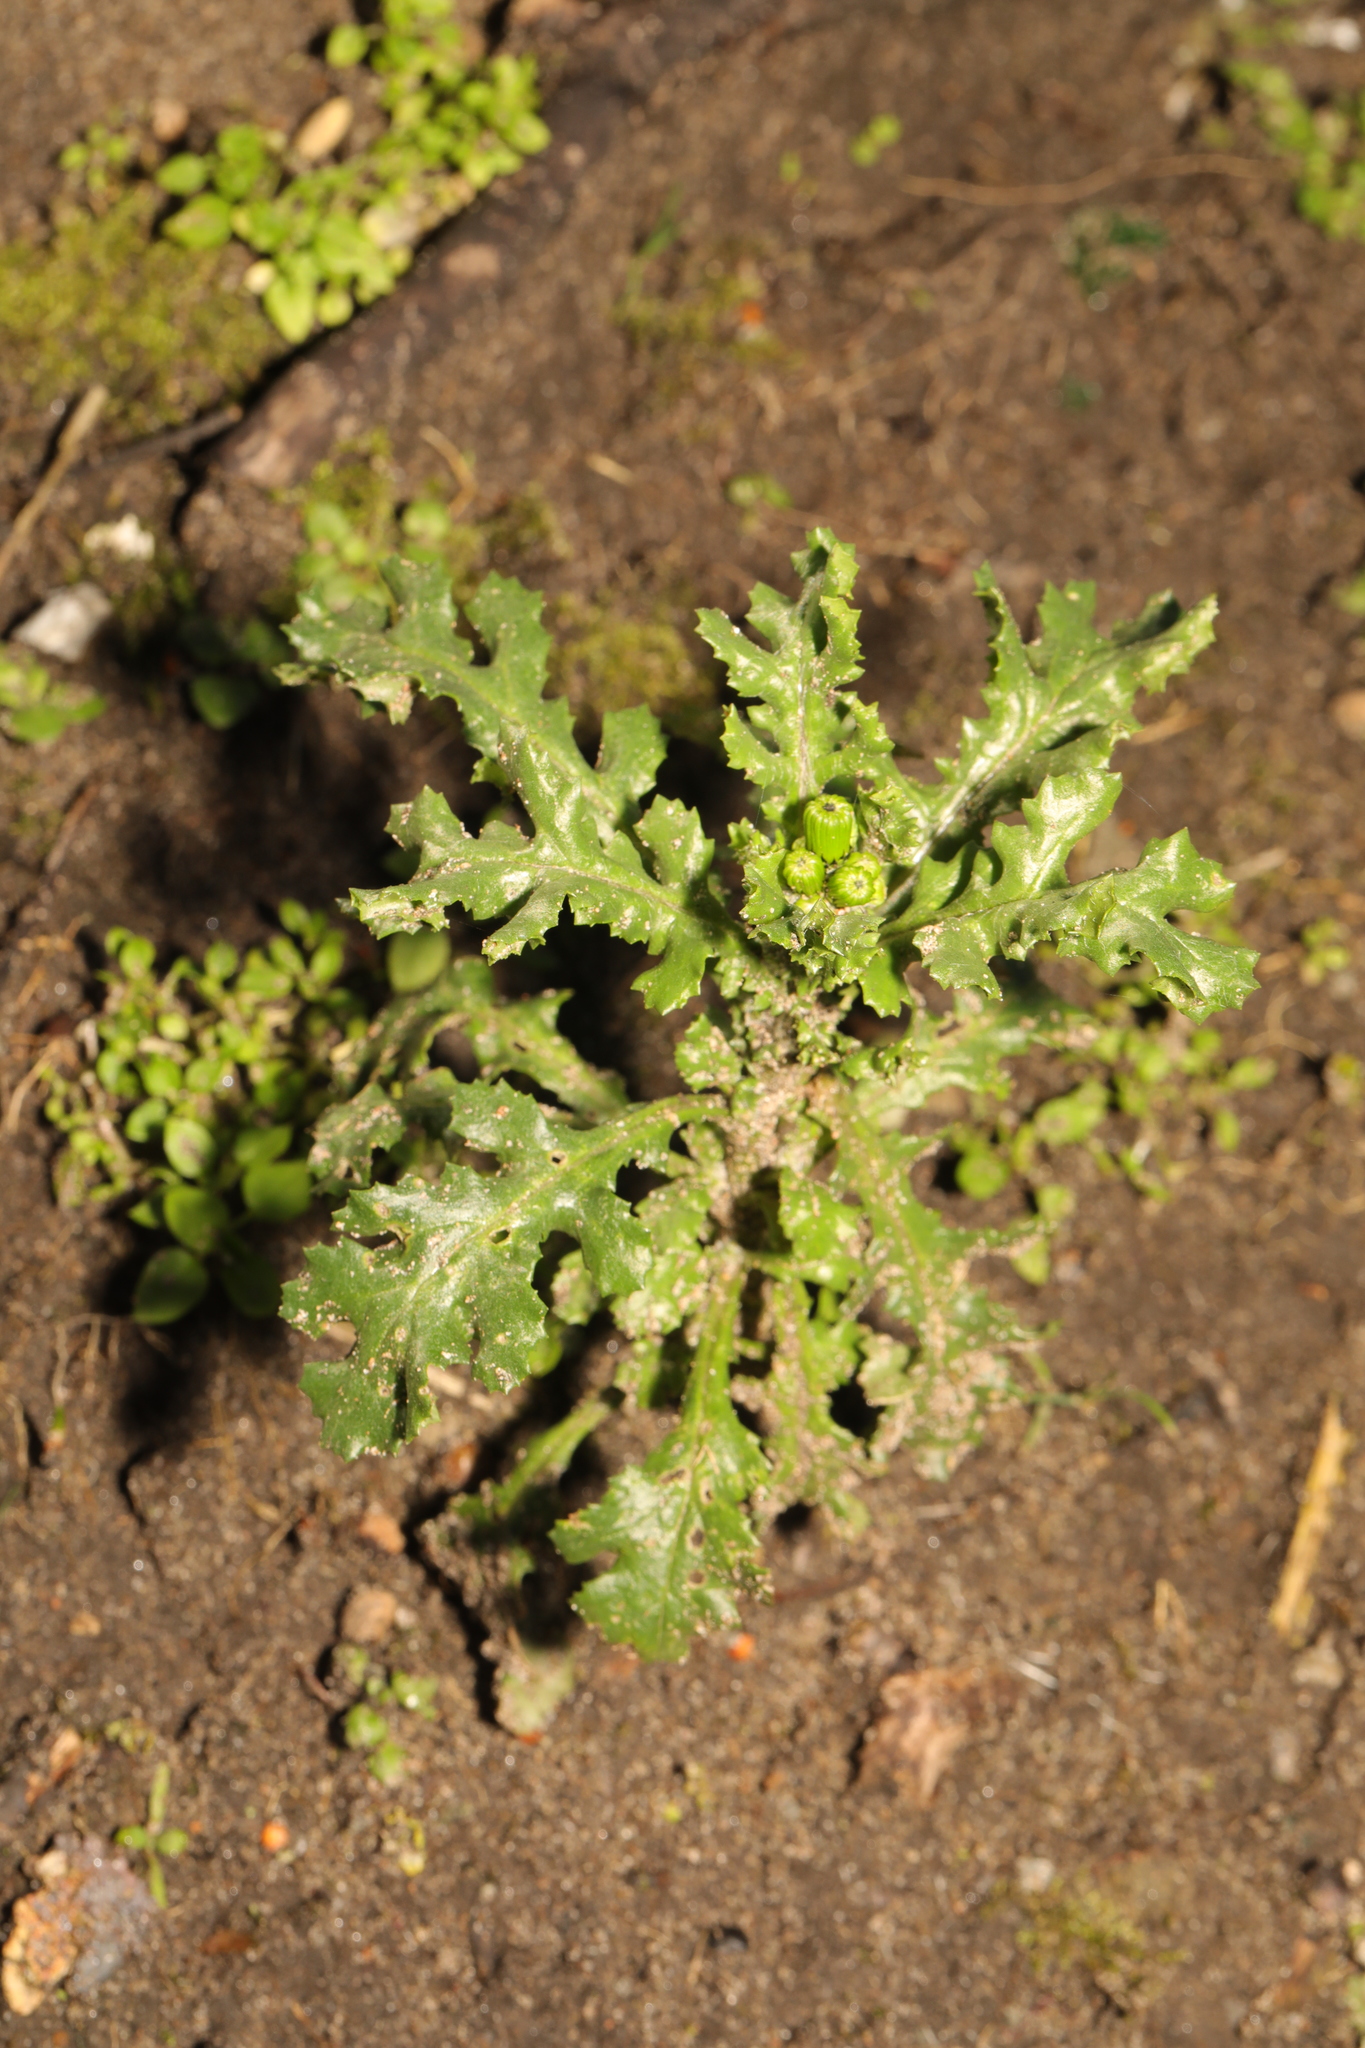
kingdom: Plantae
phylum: Tracheophyta
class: Magnoliopsida
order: Asterales
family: Asteraceae
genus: Senecio
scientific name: Senecio vulgaris
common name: Old-man-in-the-spring
